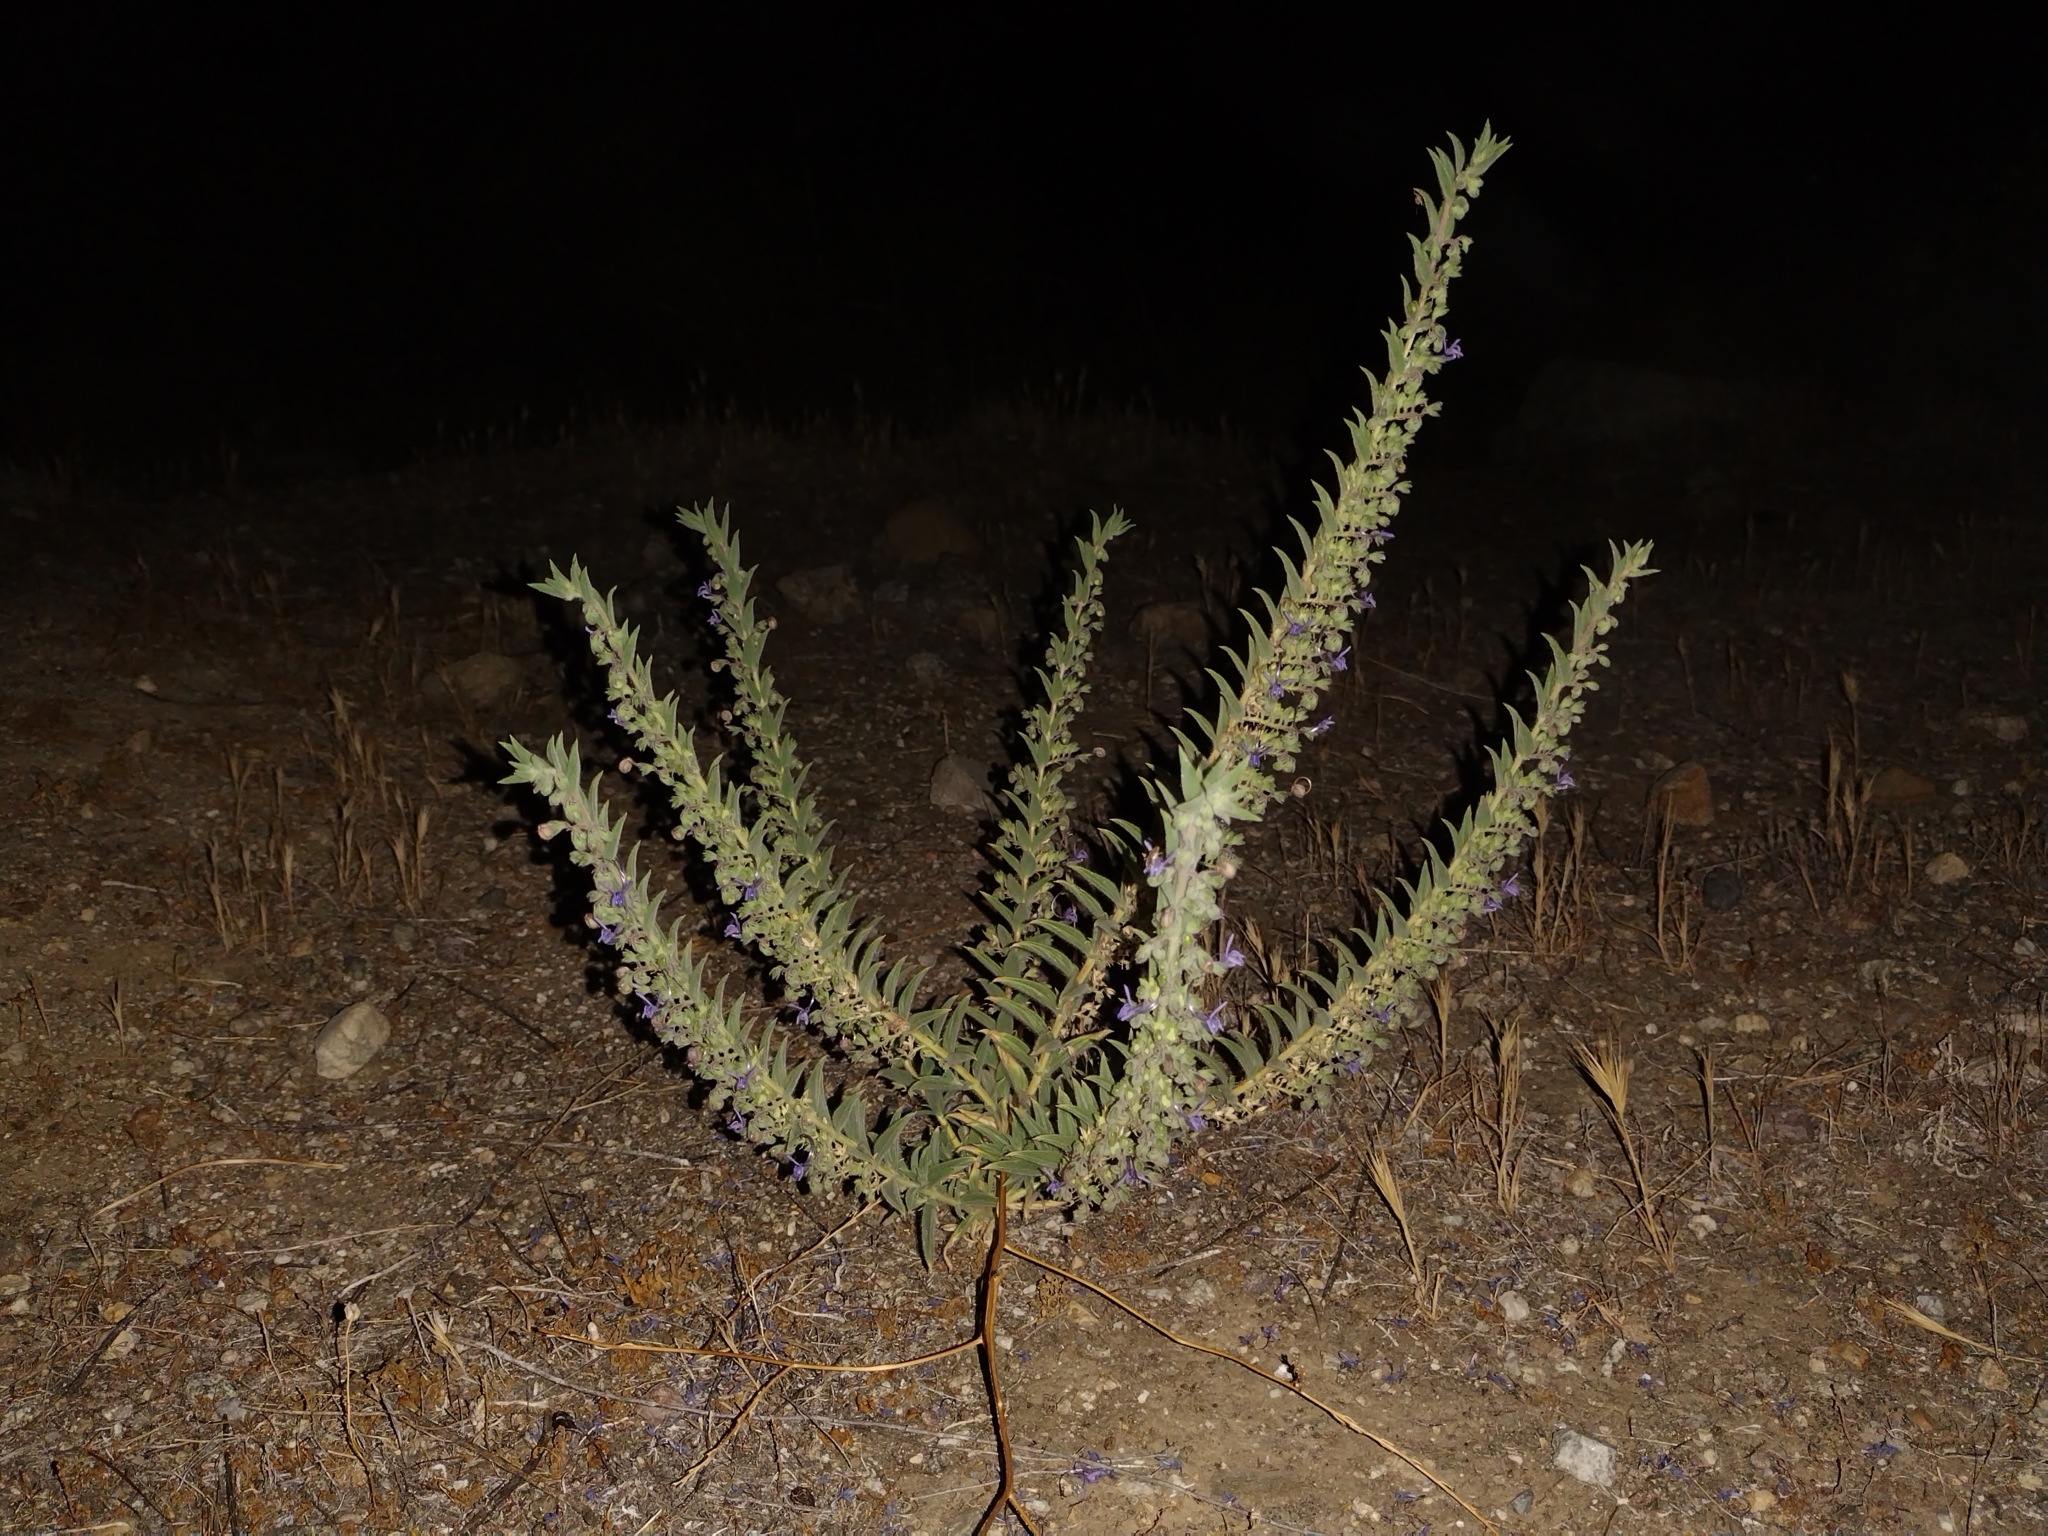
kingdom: Plantae
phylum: Tracheophyta
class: Magnoliopsida
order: Lamiales
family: Lamiaceae
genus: Trichostema
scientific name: Trichostema lanceolatum
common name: Vinegar-weed
